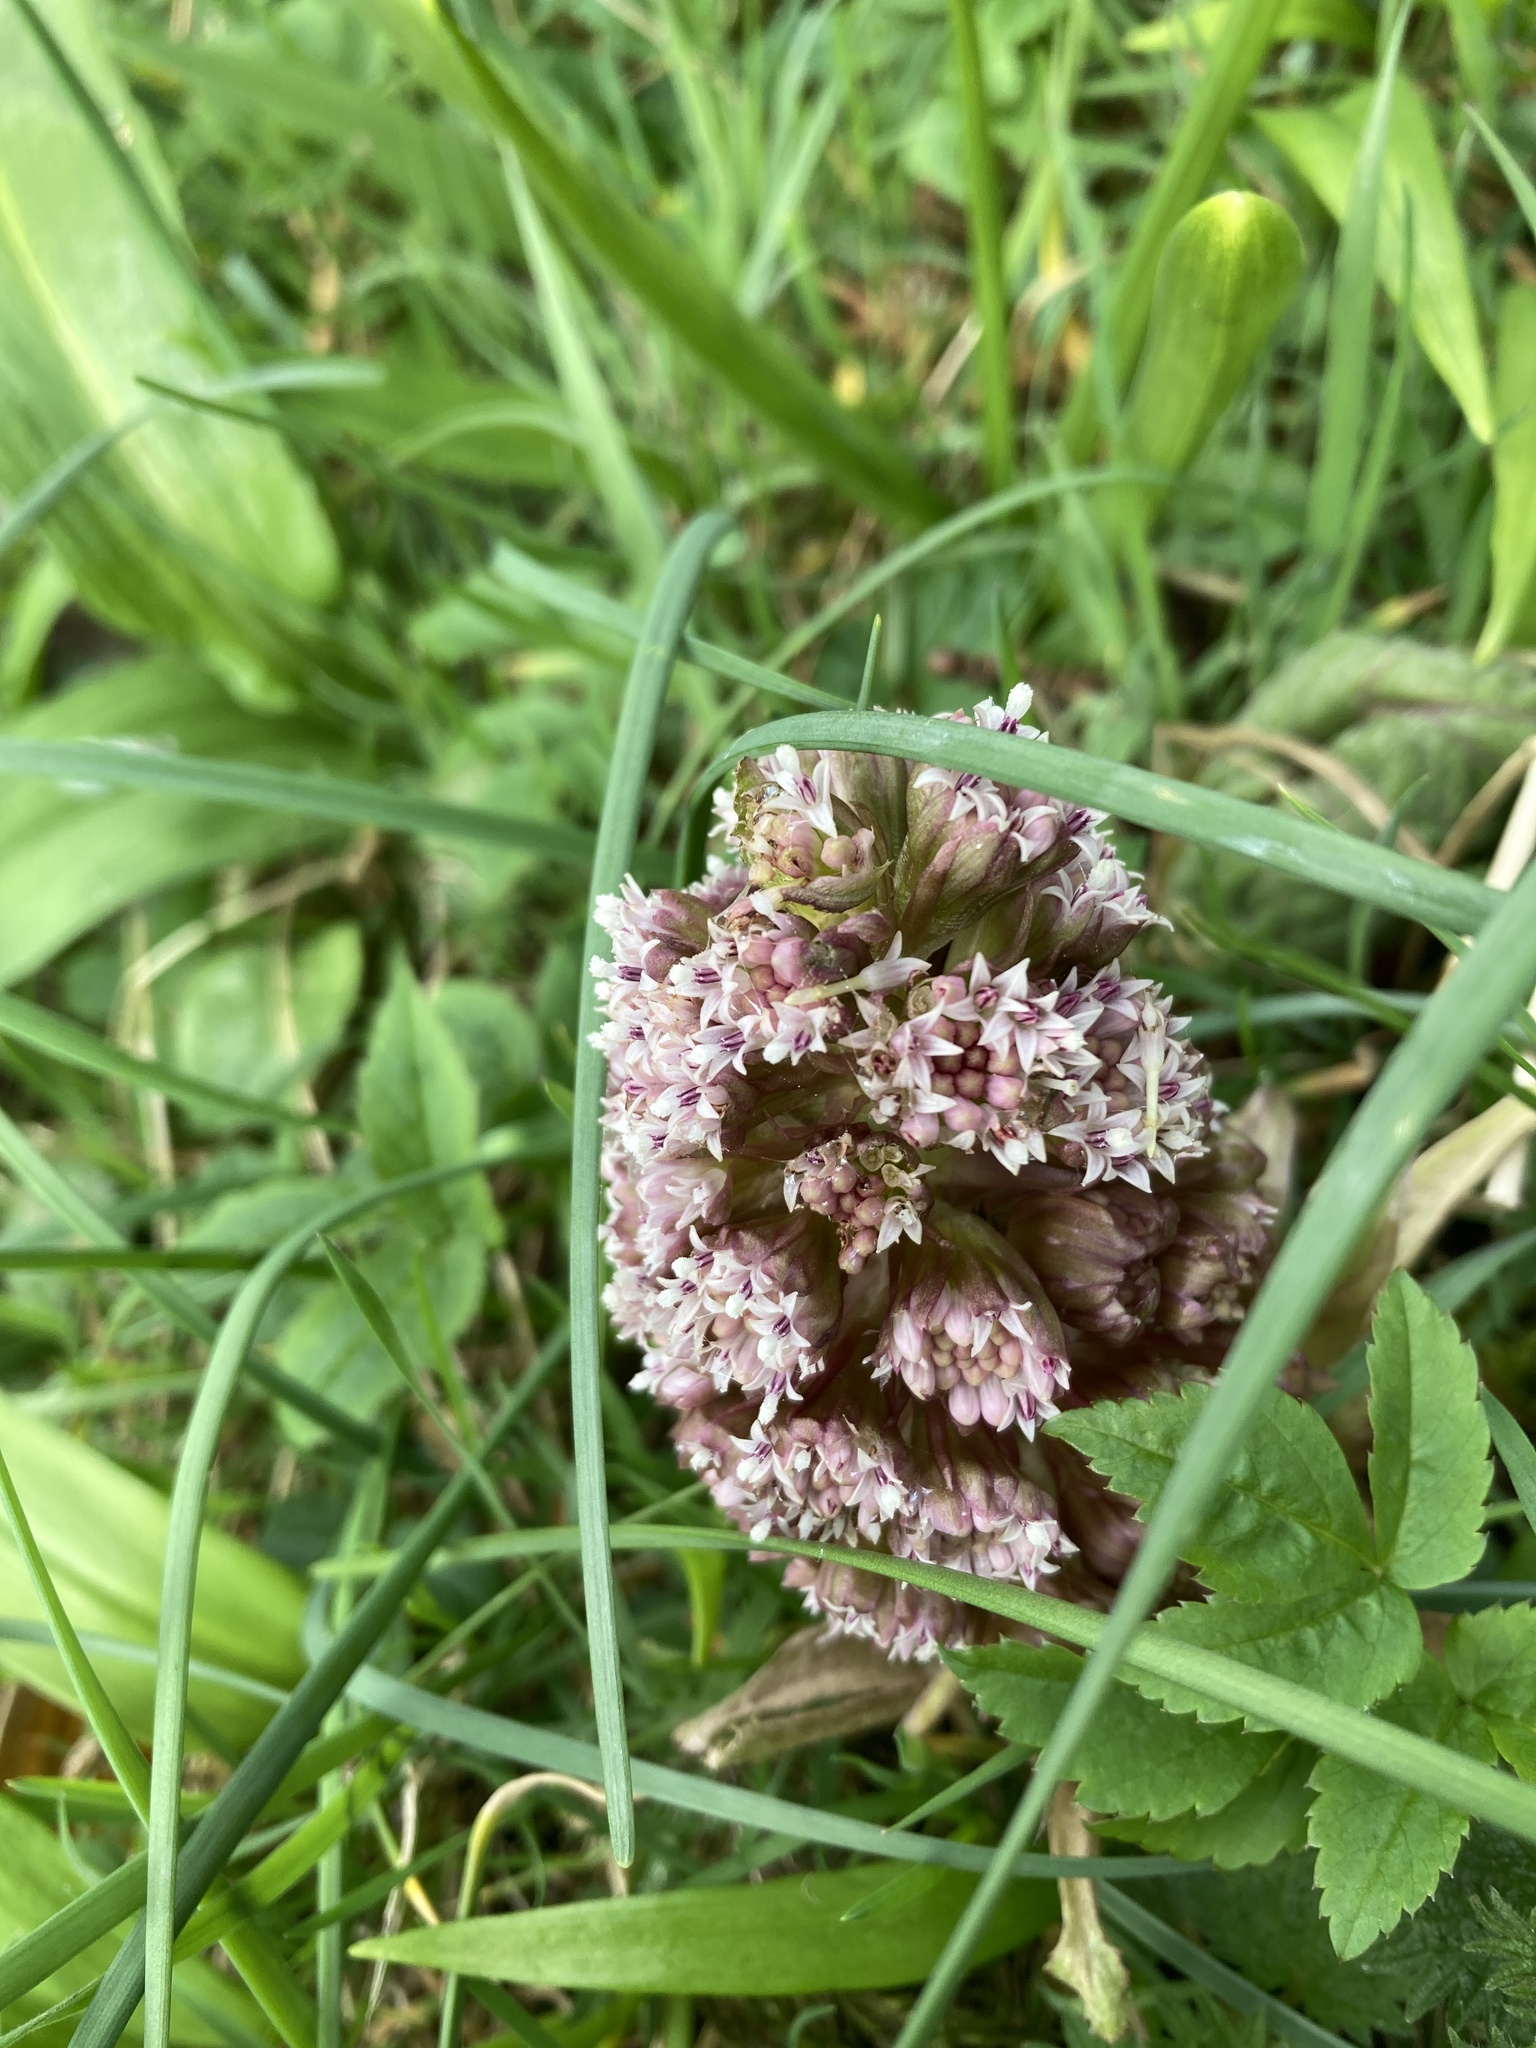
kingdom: Plantae
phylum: Tracheophyta
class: Magnoliopsida
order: Asterales
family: Asteraceae
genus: Petasites
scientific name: Petasites hybridus
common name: Butterbur
